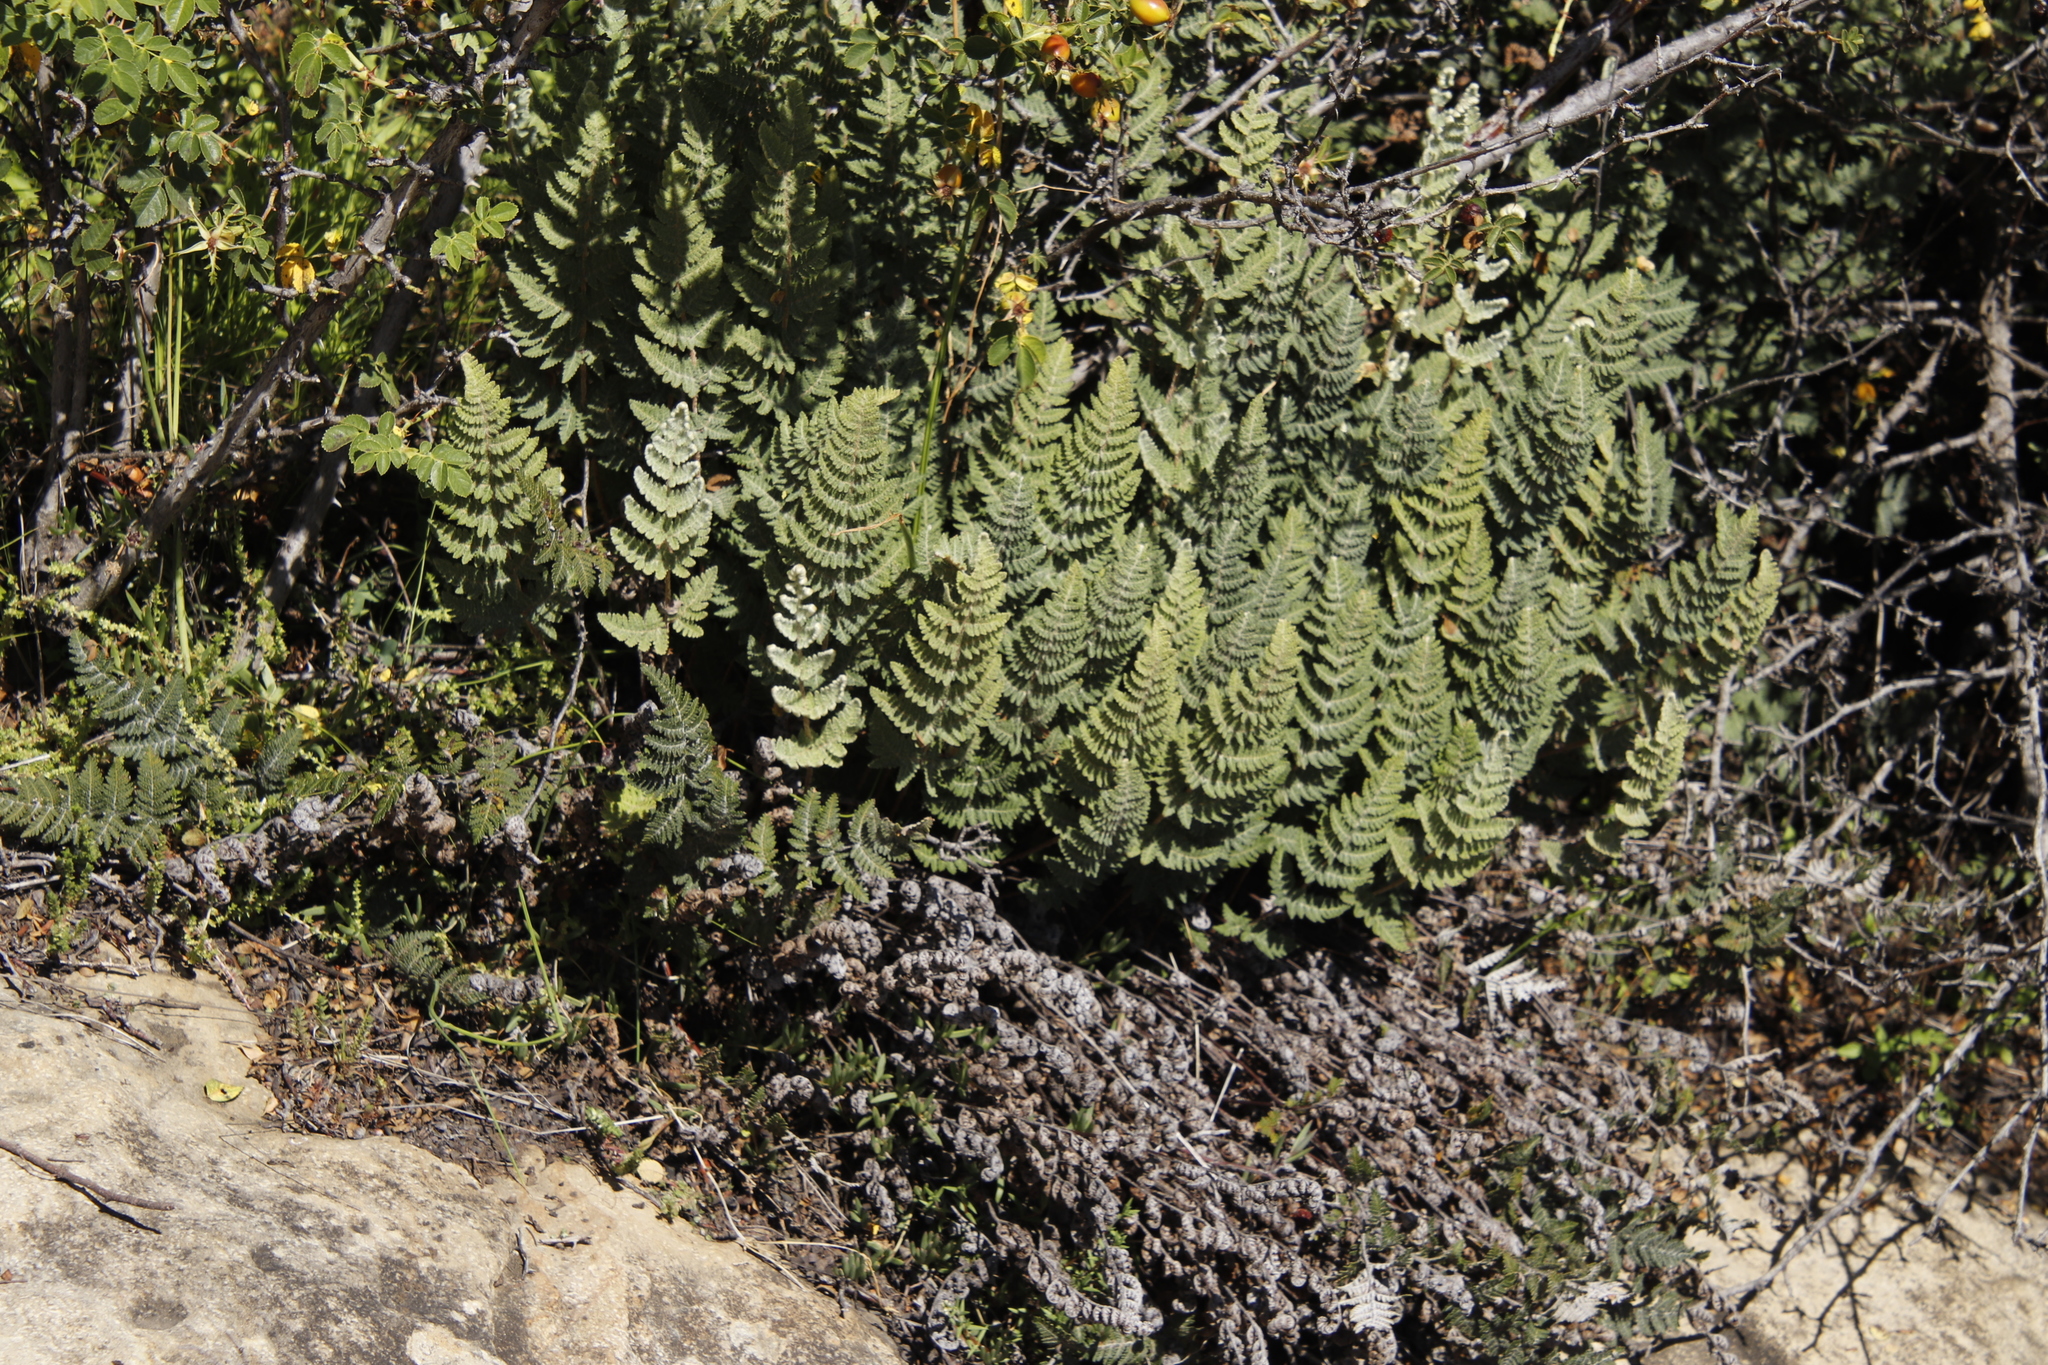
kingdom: Plantae
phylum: Tracheophyta
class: Polypodiopsida
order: Polypodiales
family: Pteridaceae
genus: Cheilanthes
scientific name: Cheilanthes eckloniana
